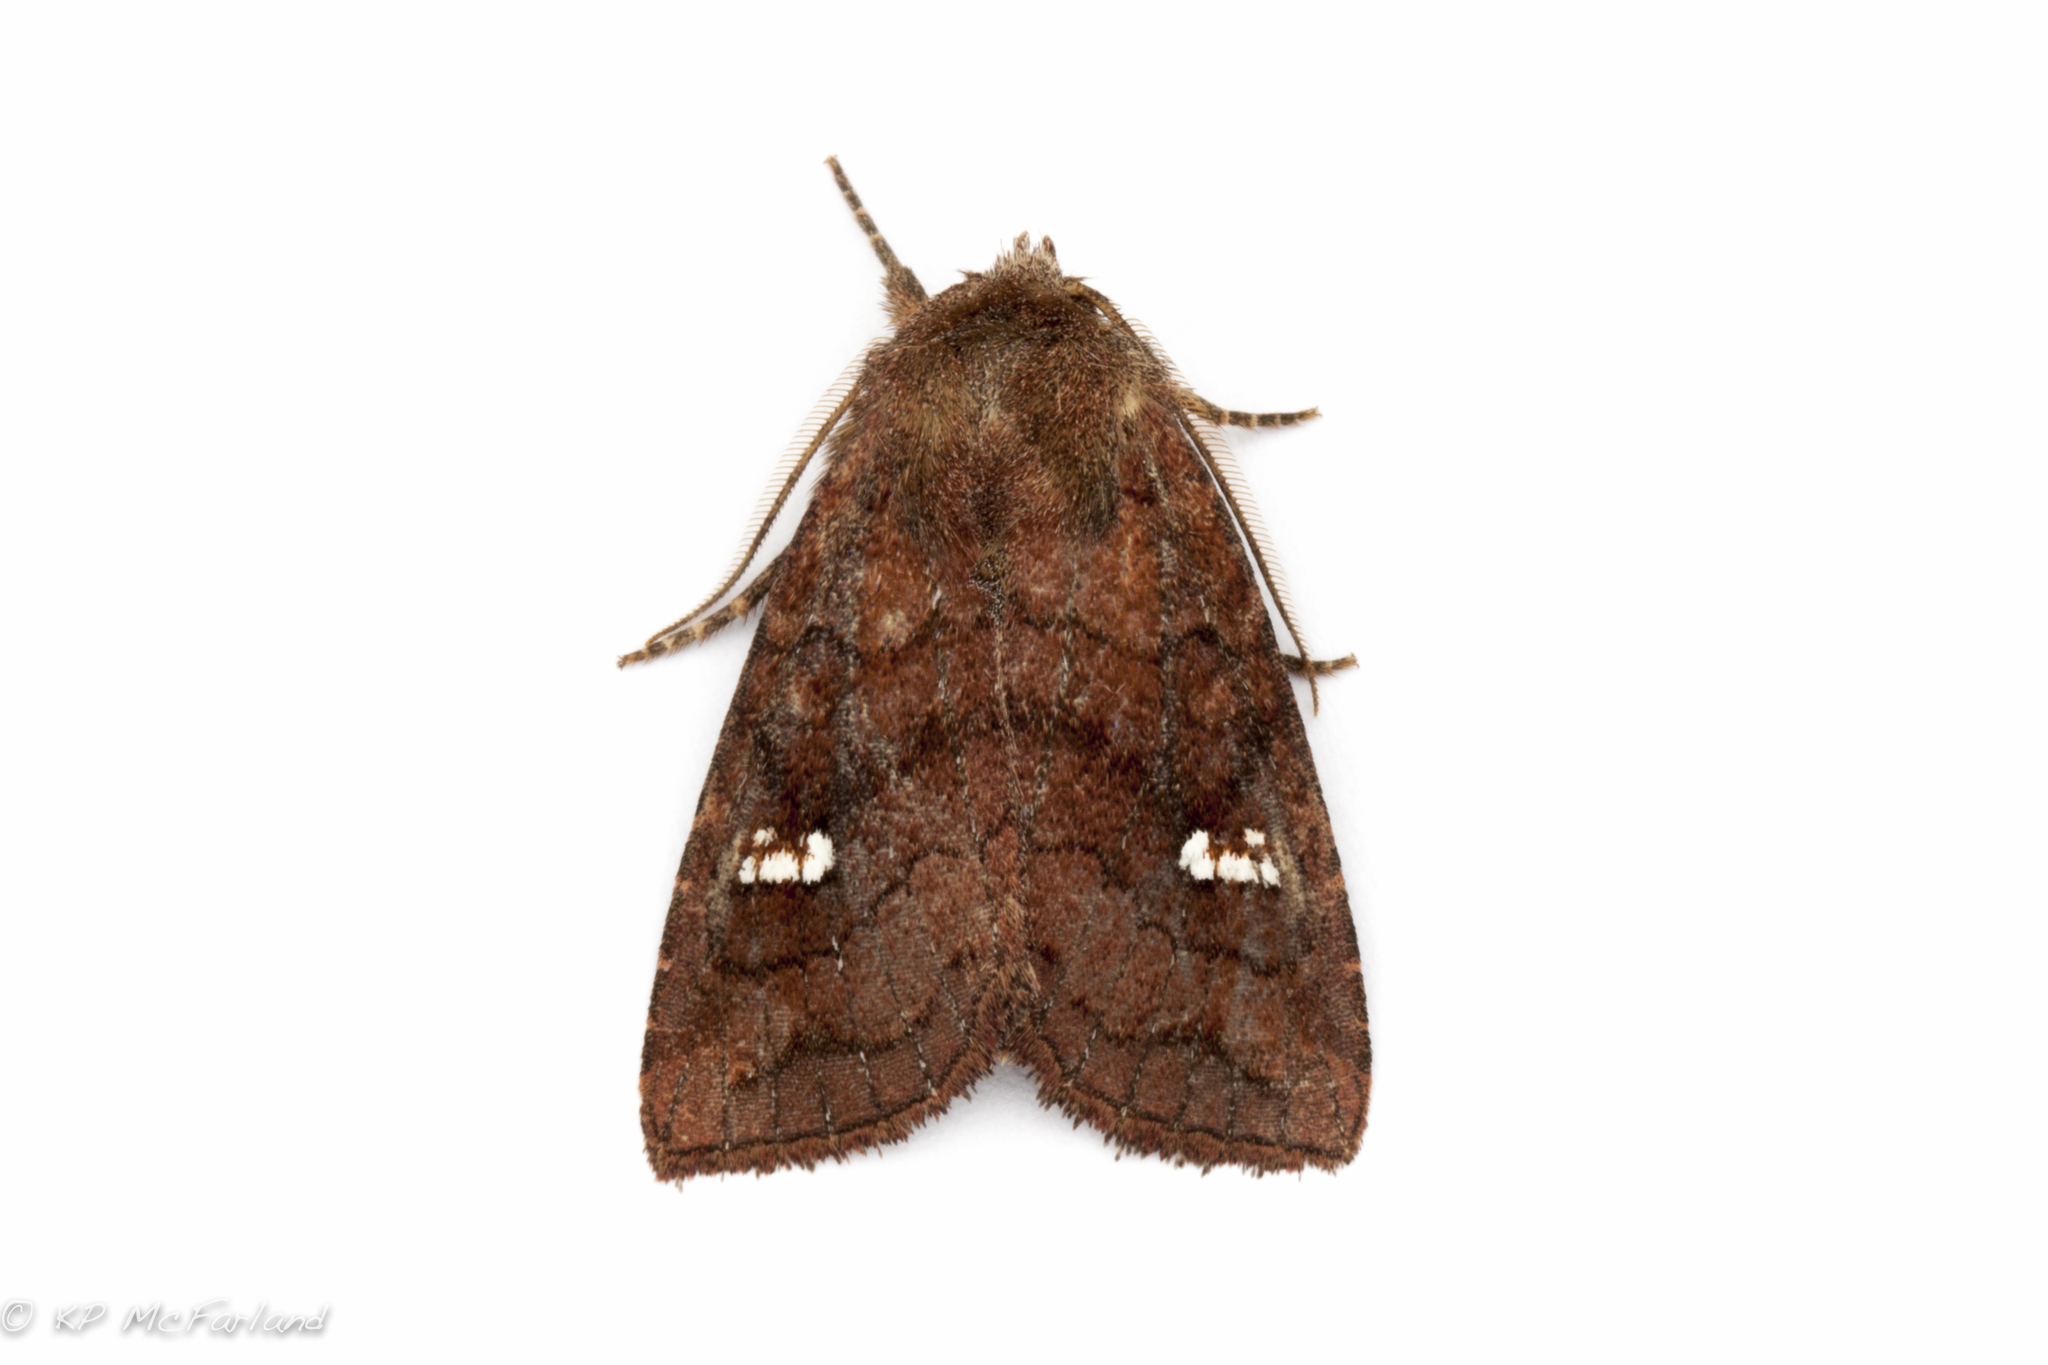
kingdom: Animalia
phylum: Arthropoda
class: Insecta
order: Lepidoptera
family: Noctuidae
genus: Tricholita
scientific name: Tricholita signata
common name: Signate quaker
